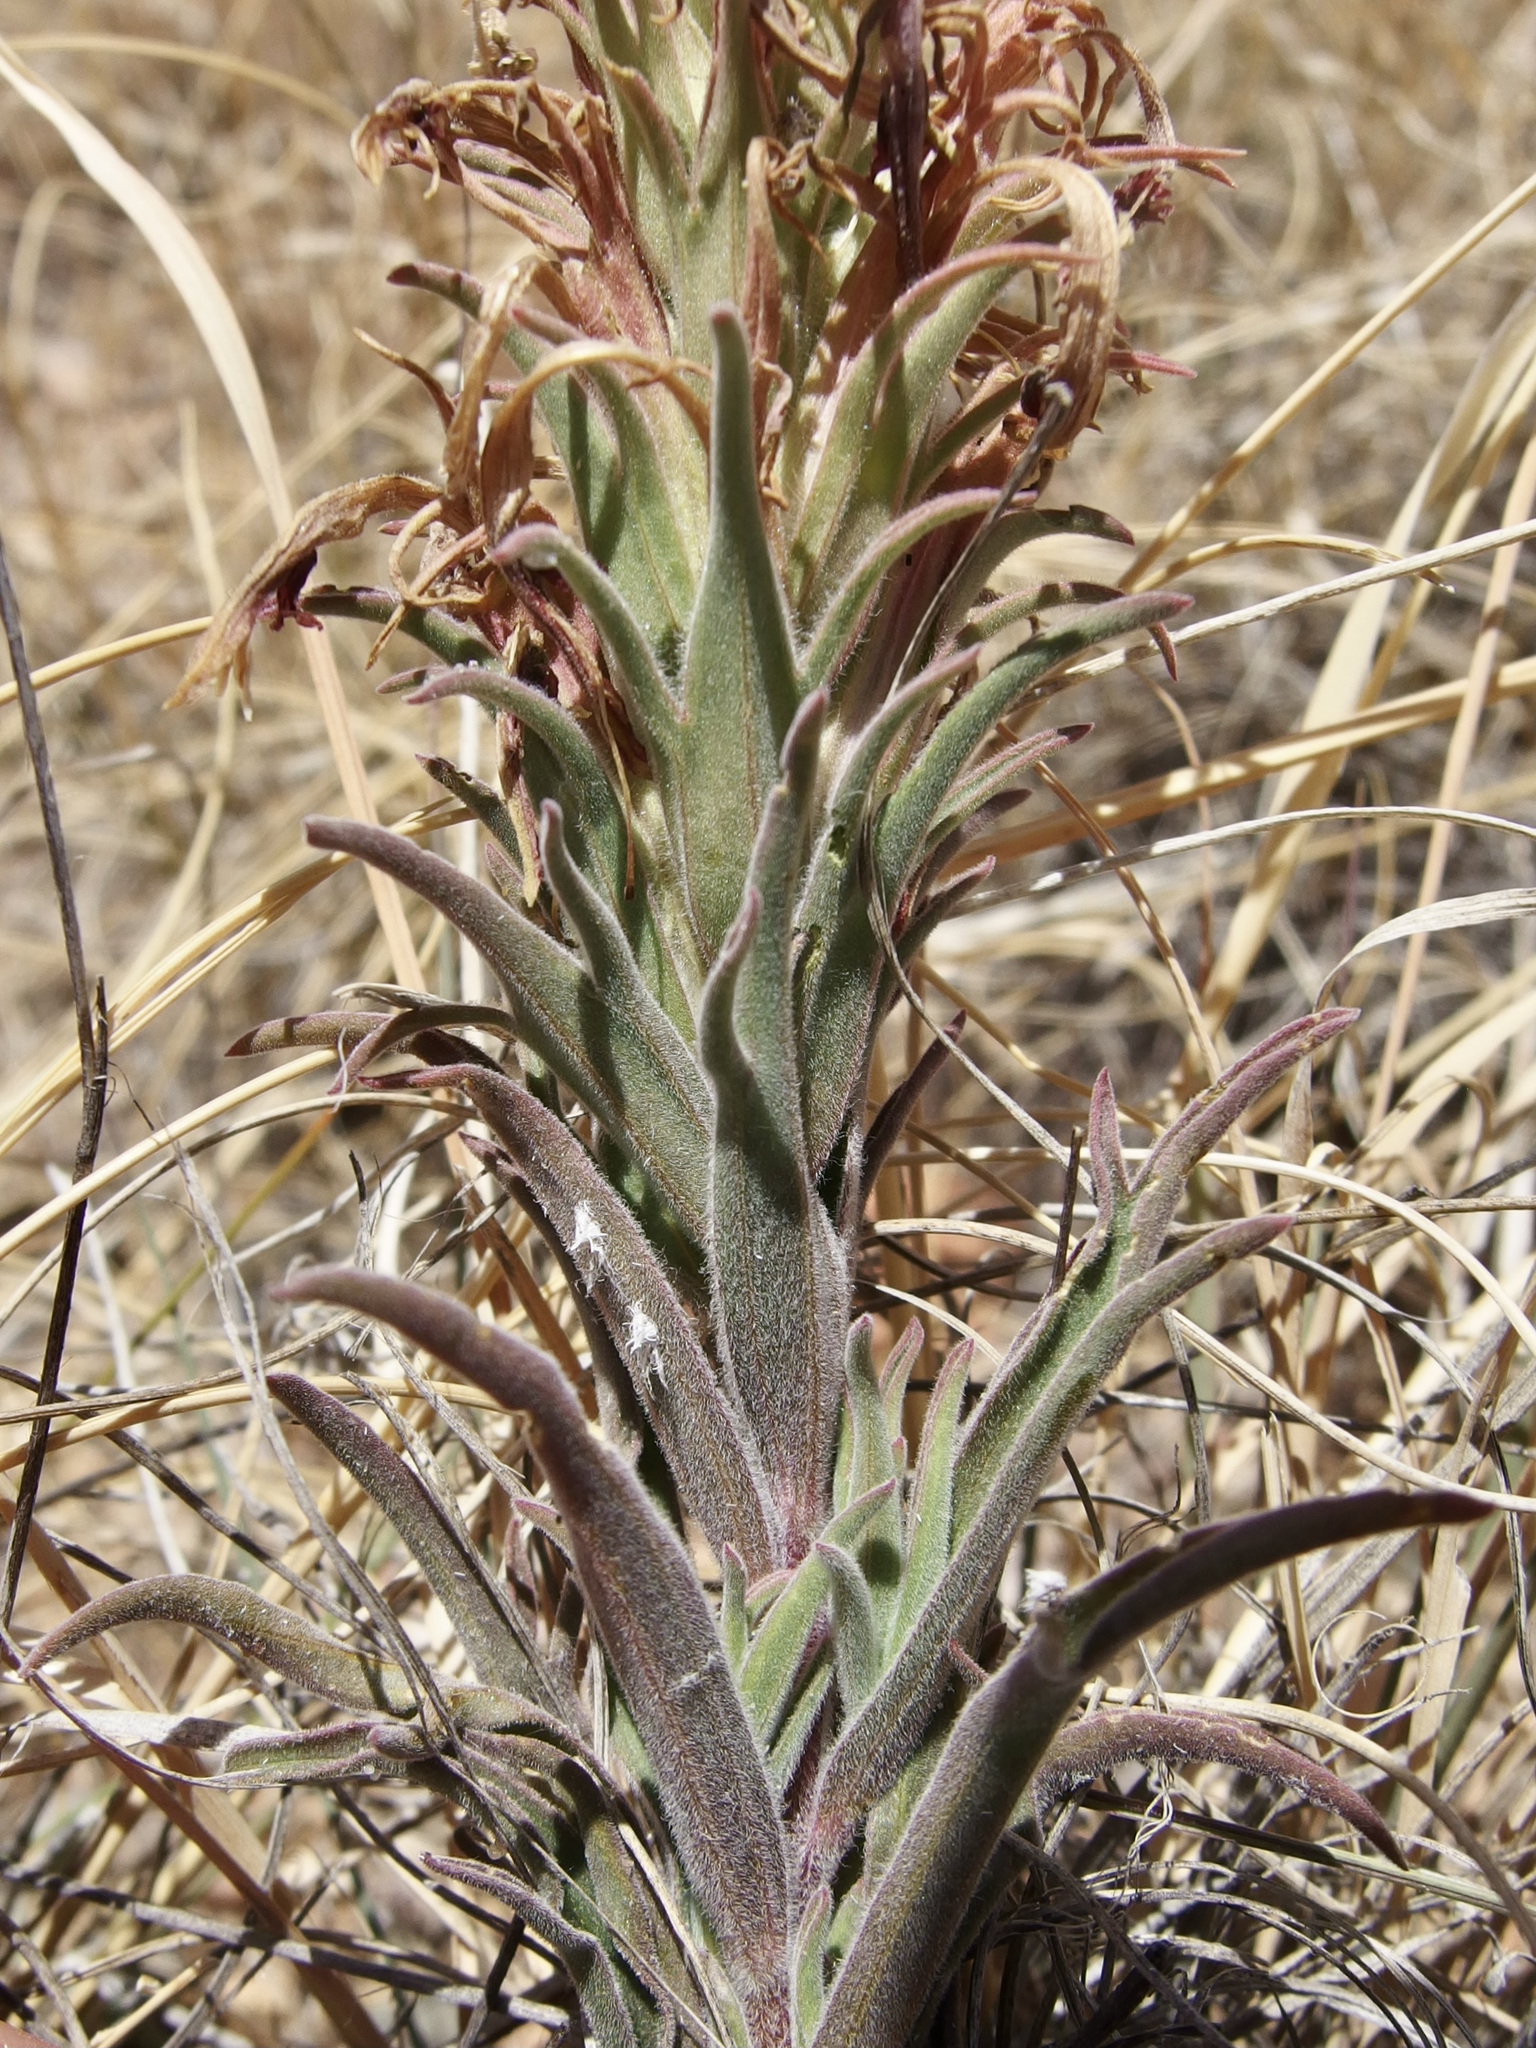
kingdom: Plantae
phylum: Tracheophyta
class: Magnoliopsida
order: Lamiales
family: Orobanchaceae
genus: Castilleja
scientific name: Castilleja sessiliflora
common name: Downy paintbrush
